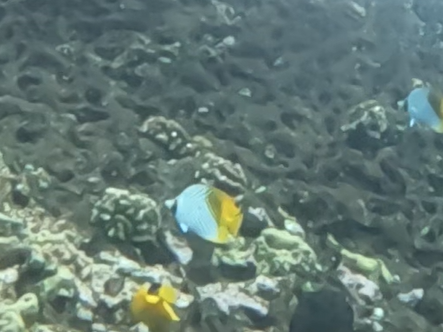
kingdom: Animalia
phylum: Chordata
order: Perciformes
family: Chaetodontidae
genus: Chaetodon
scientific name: Chaetodon auriga
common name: Threadfin butterflyfish
